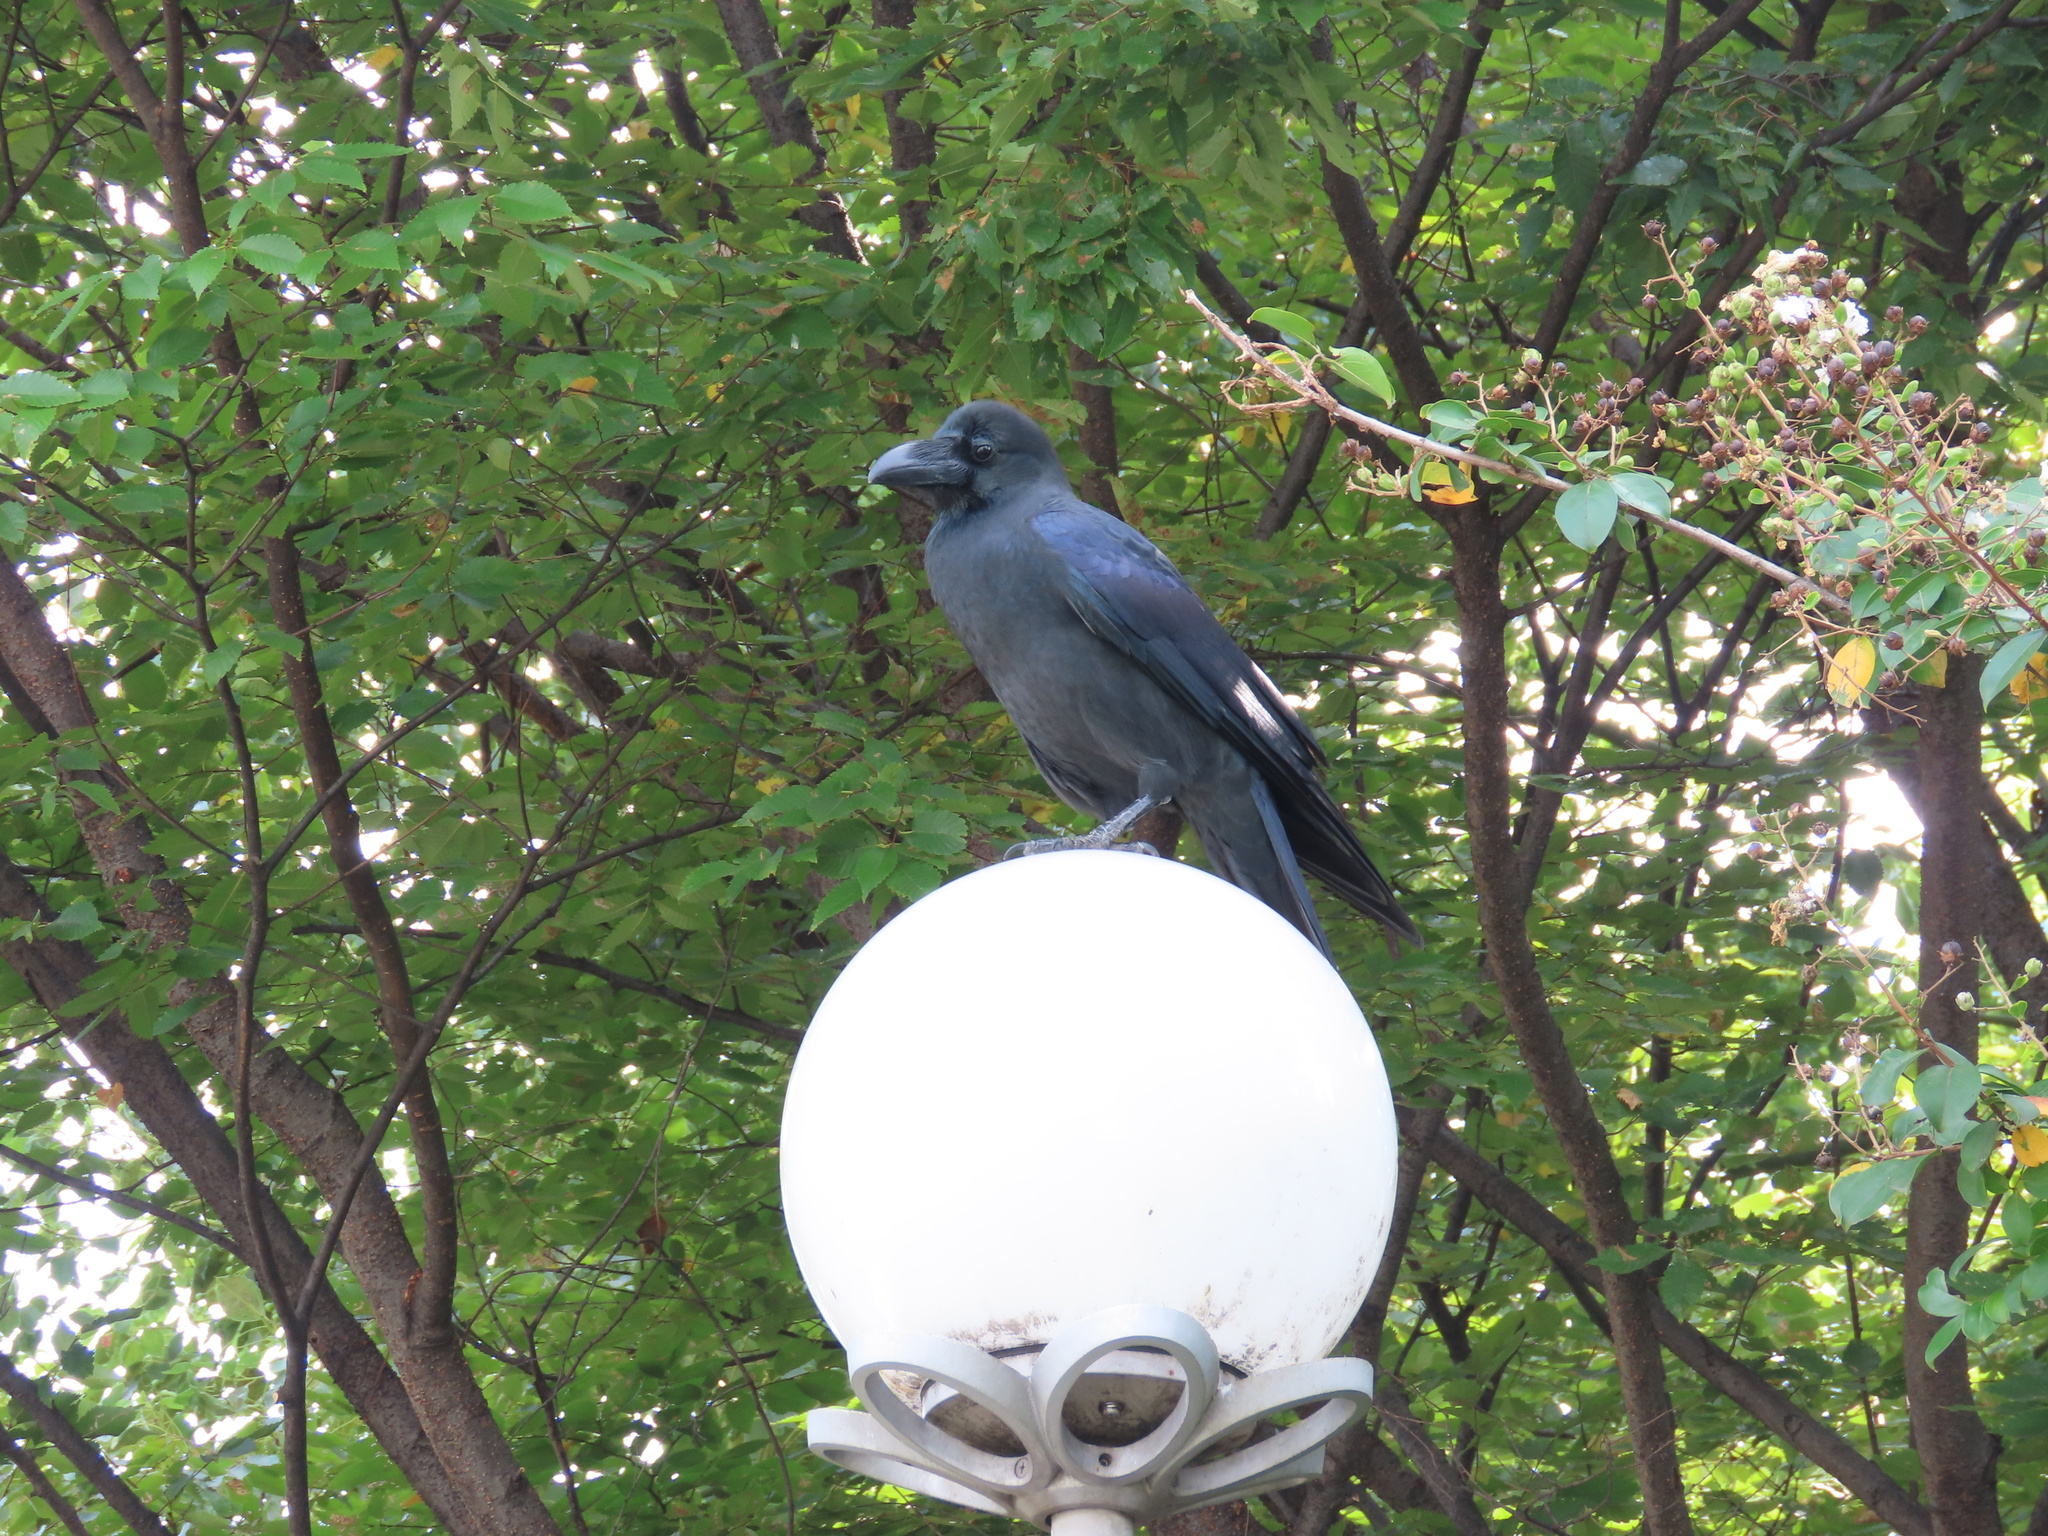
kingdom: Animalia
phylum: Chordata
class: Aves
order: Passeriformes
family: Corvidae
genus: Corvus
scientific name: Corvus macrorhynchos
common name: Large-billed crow
